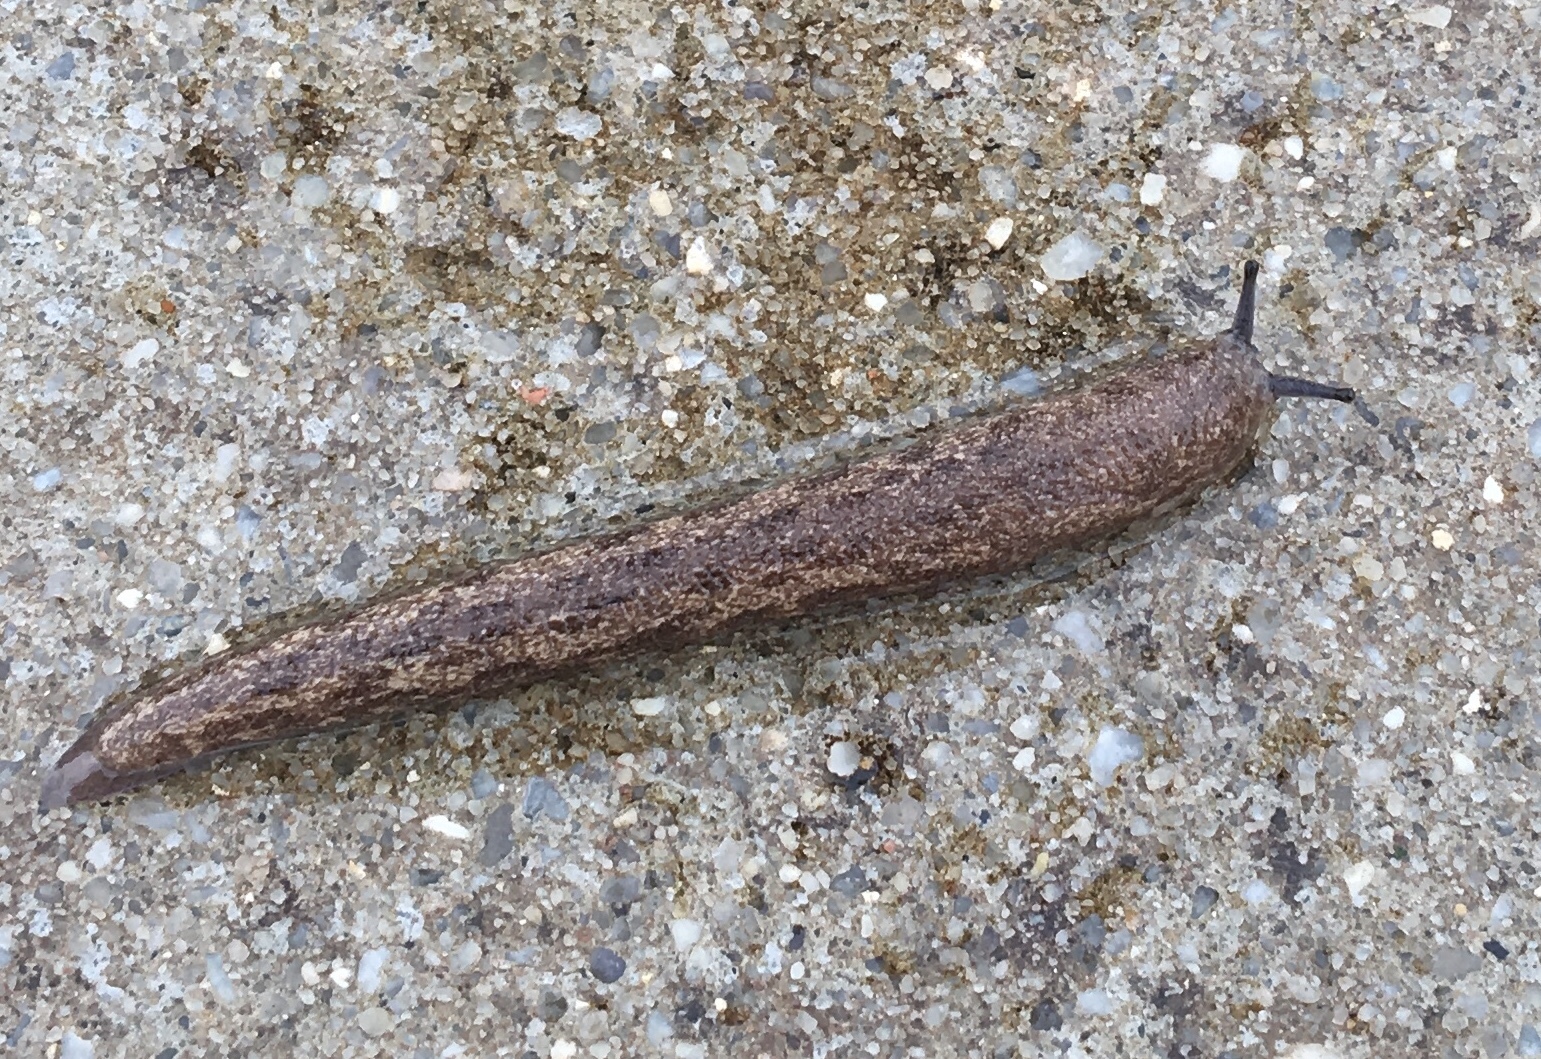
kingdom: Animalia
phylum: Mollusca
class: Gastropoda
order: Stylommatophora
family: Philomycidae
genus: Megapallifera
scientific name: Megapallifera mutabilis
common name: Changeable mantleslug
